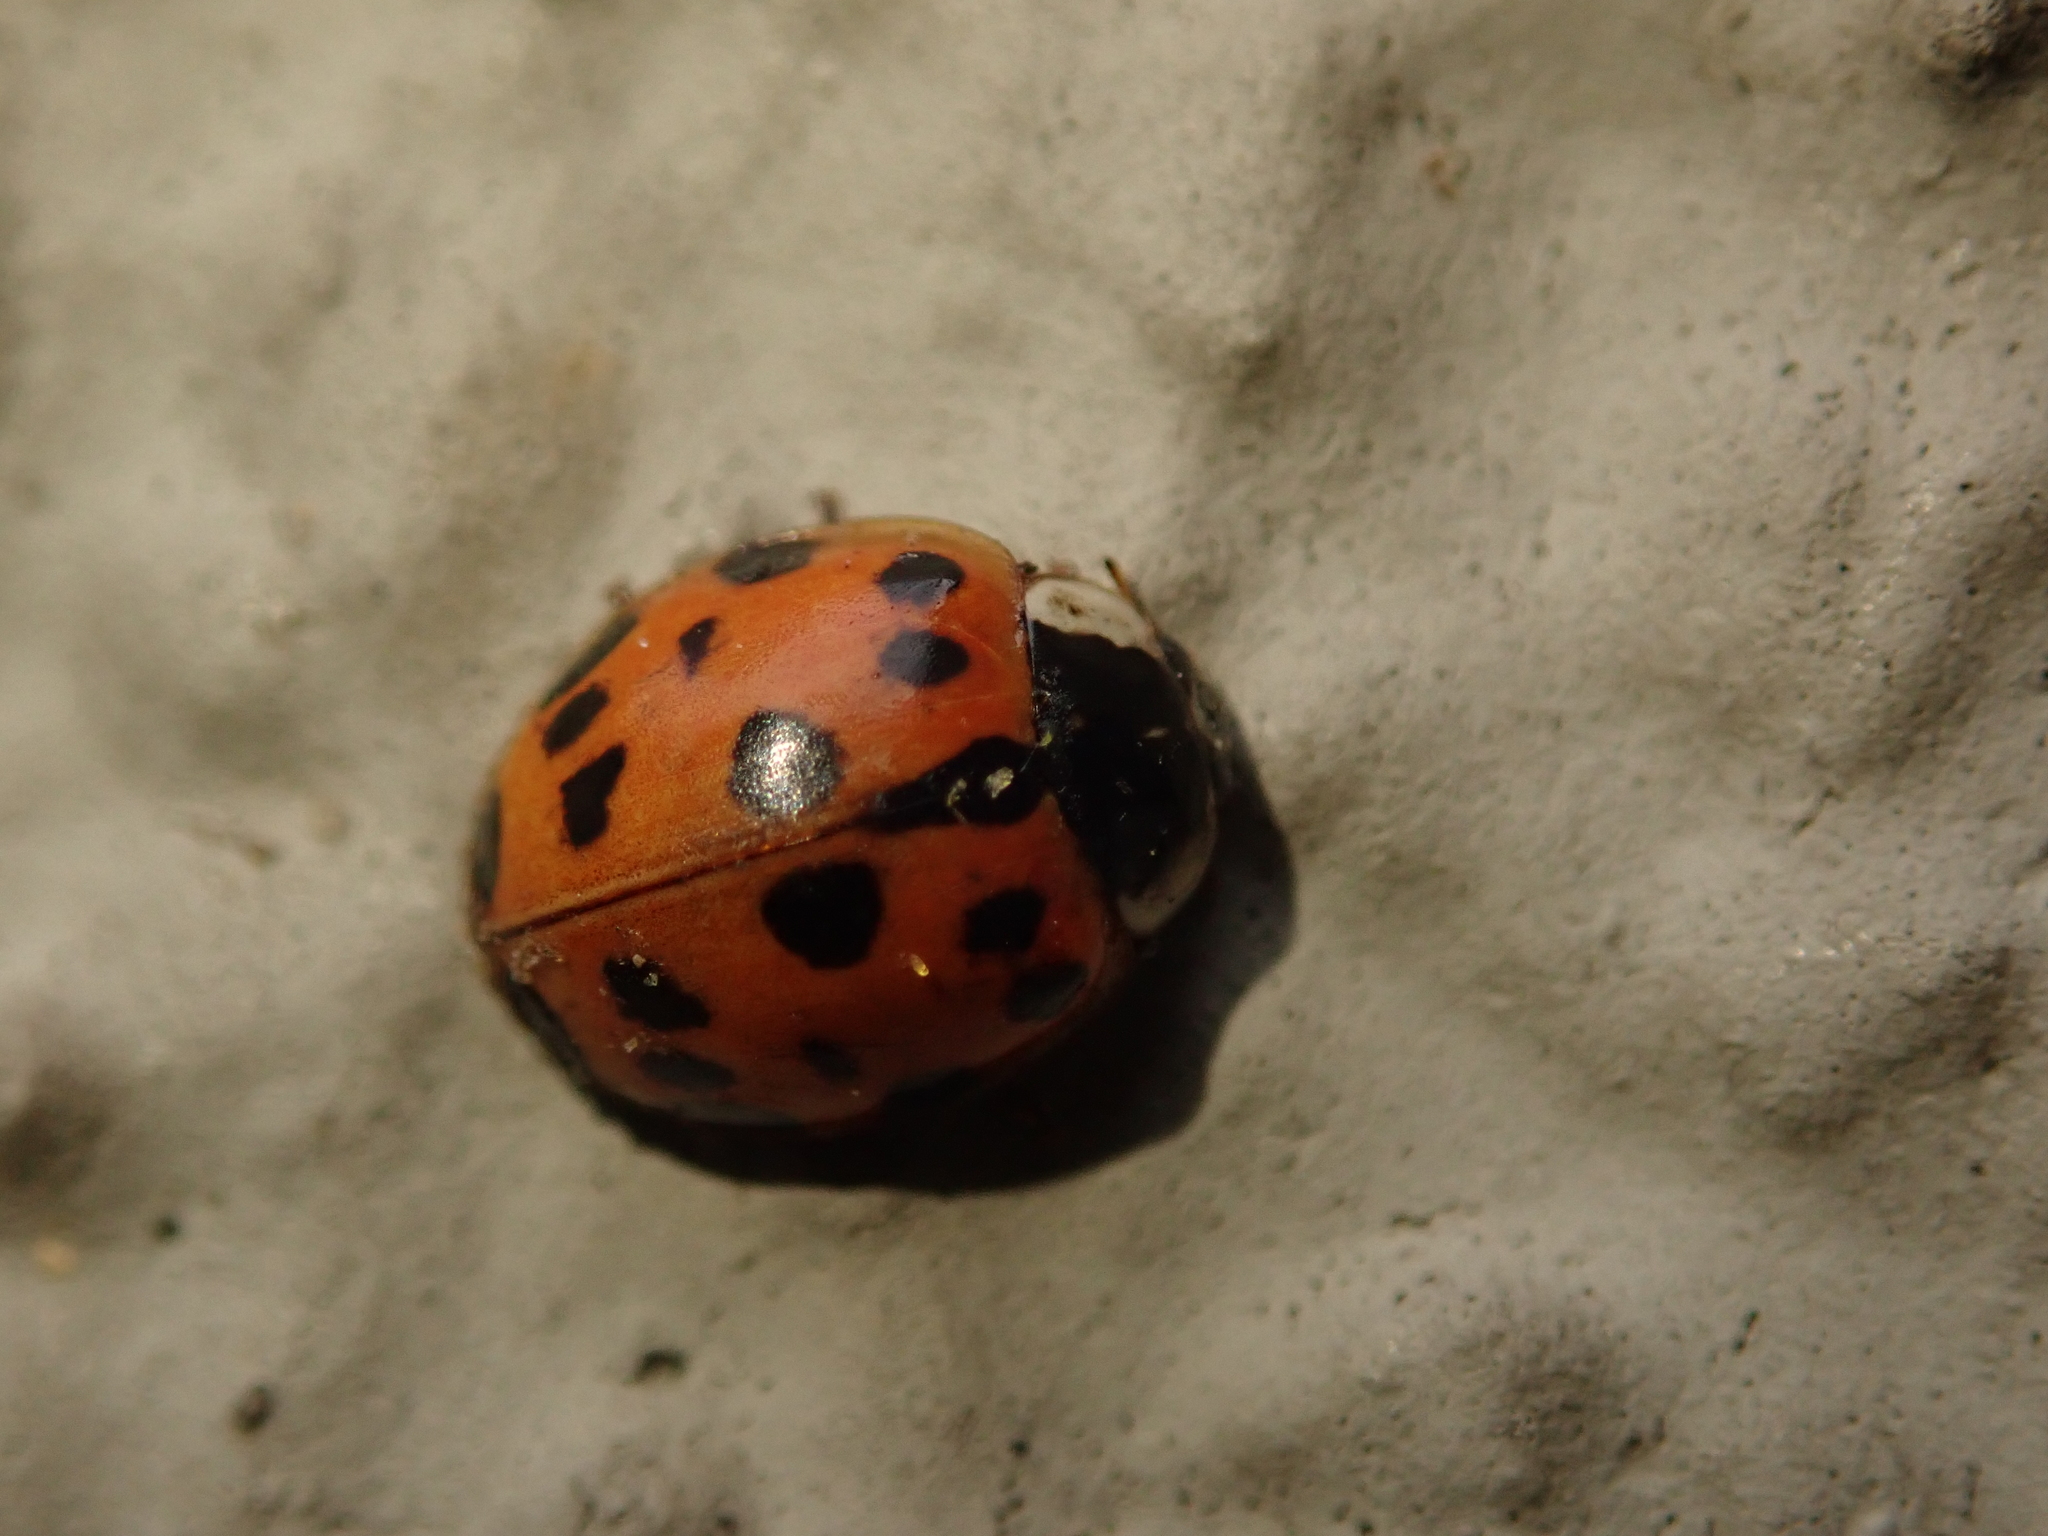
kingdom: Animalia
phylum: Arthropoda
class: Insecta
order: Coleoptera
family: Coccinellidae
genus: Harmonia
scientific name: Harmonia axyridis
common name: Harlequin ladybird
